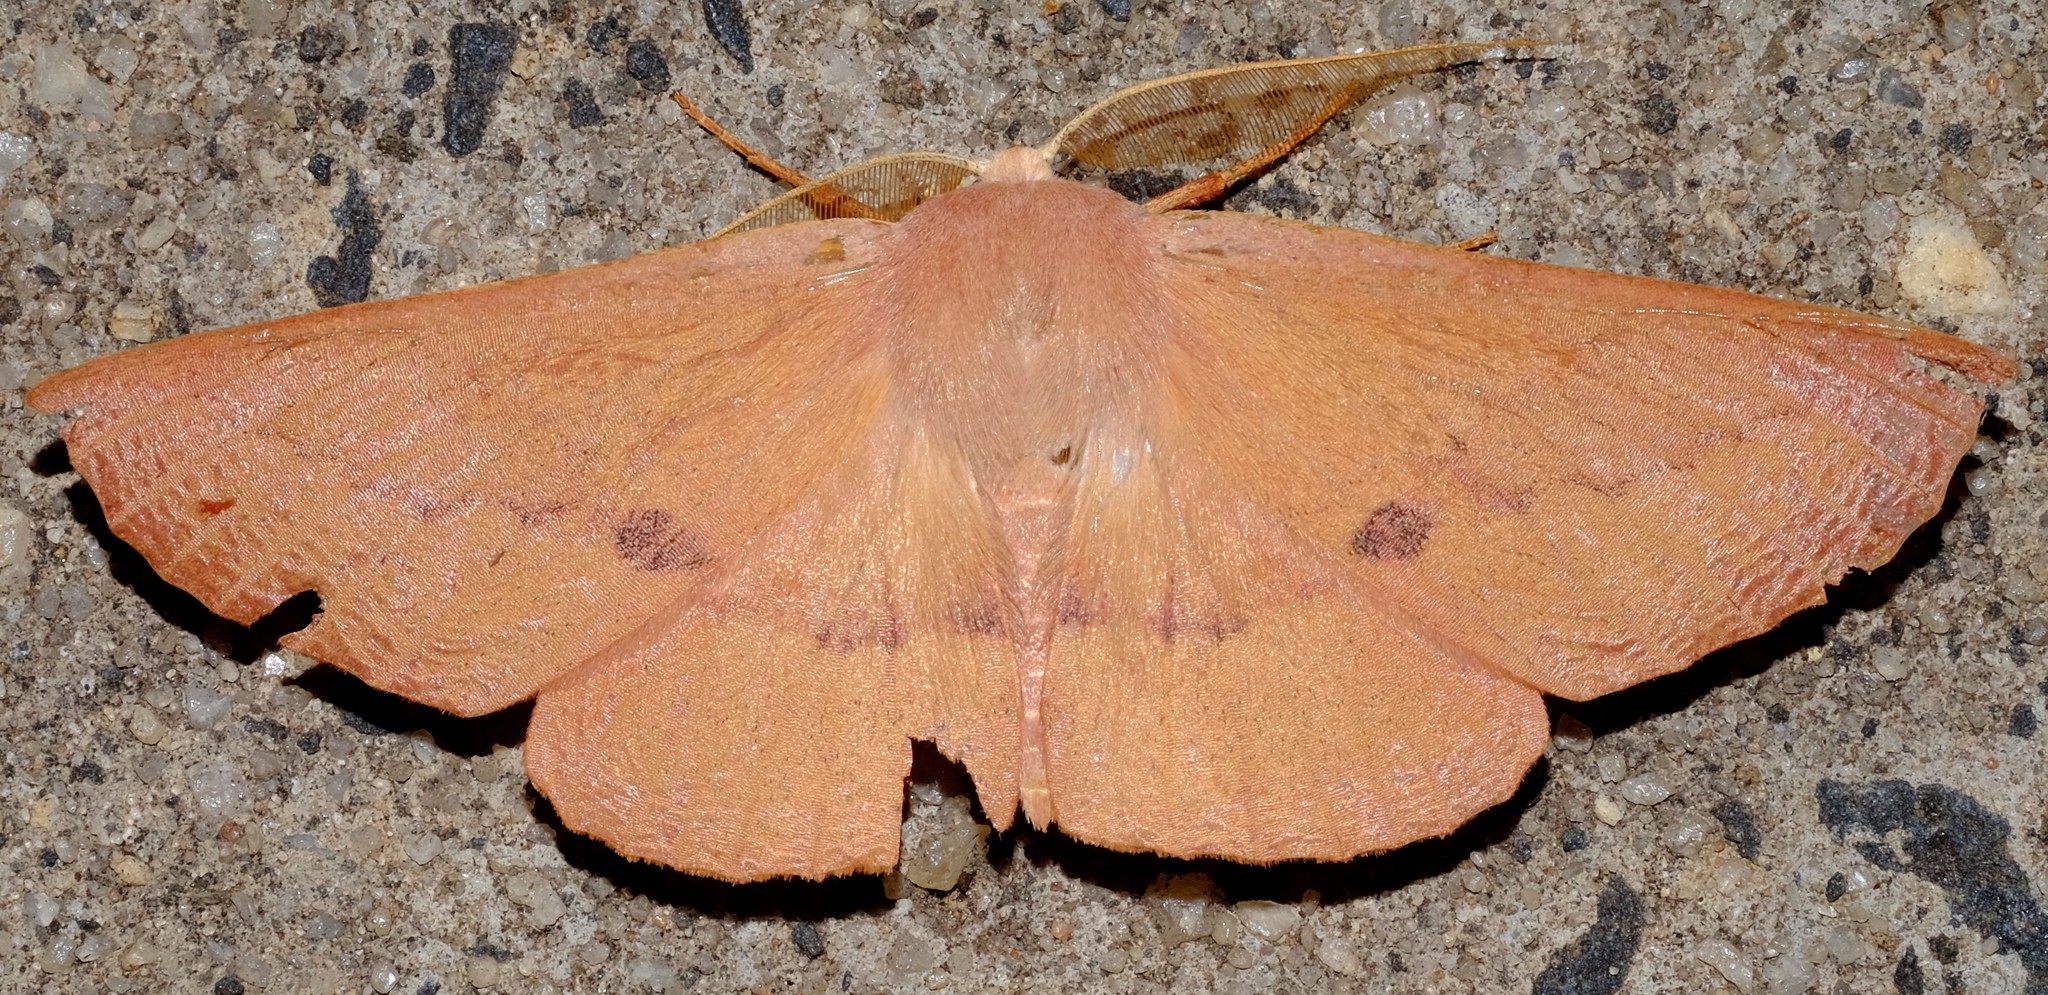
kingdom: Animalia
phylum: Arthropoda
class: Insecta
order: Lepidoptera
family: Geometridae
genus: Monoctenia
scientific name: Monoctenia falernaria
